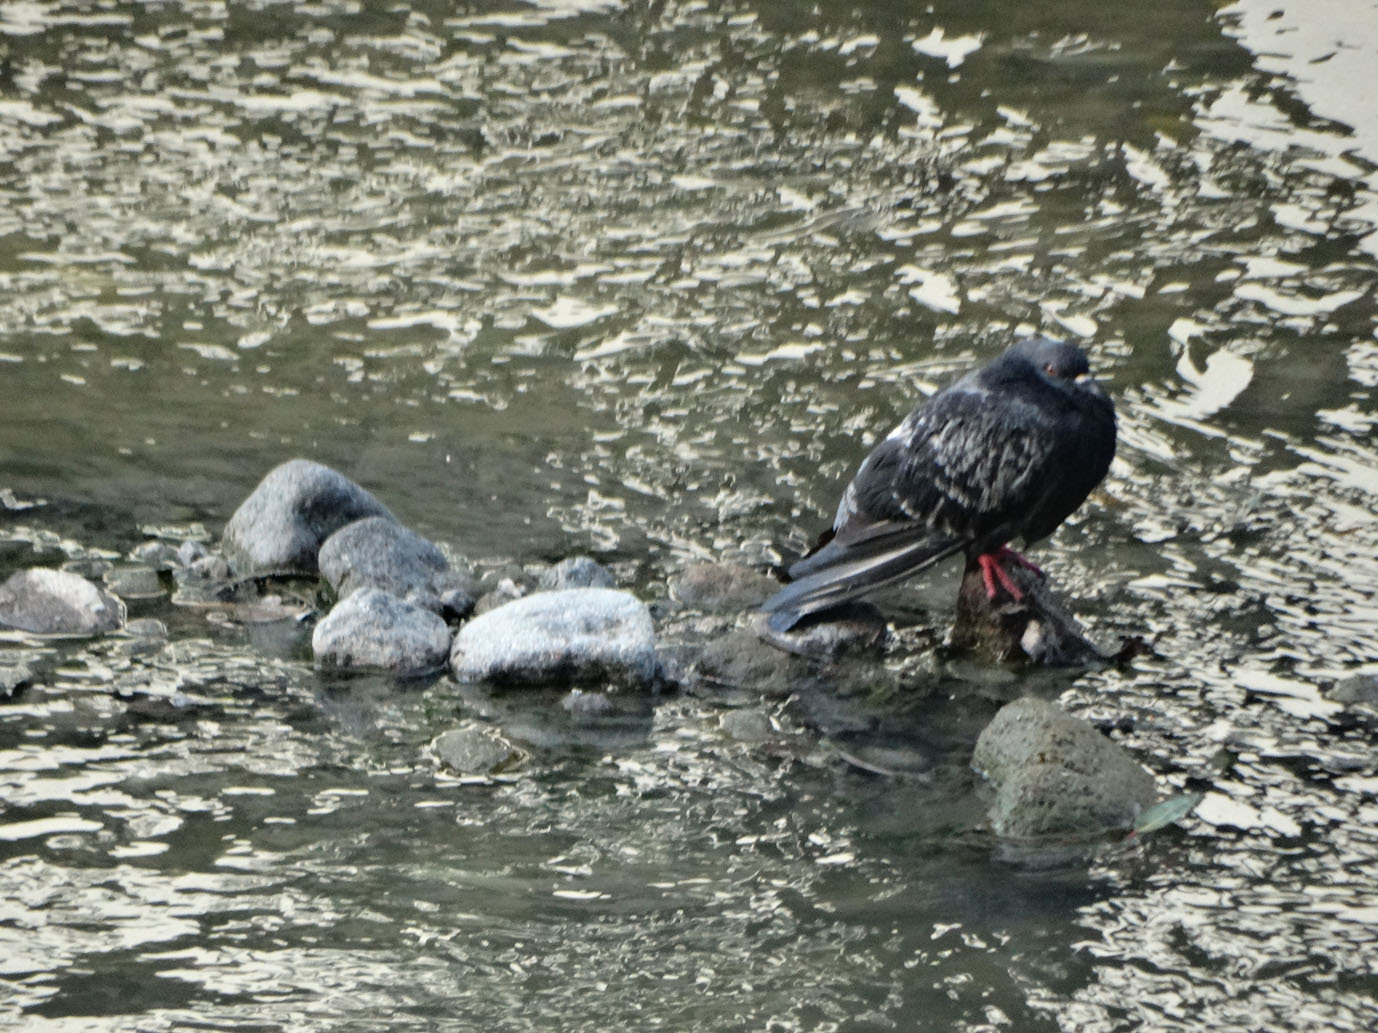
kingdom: Animalia
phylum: Chordata
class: Aves
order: Columbiformes
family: Columbidae
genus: Columba
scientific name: Columba livia
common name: Rock pigeon
